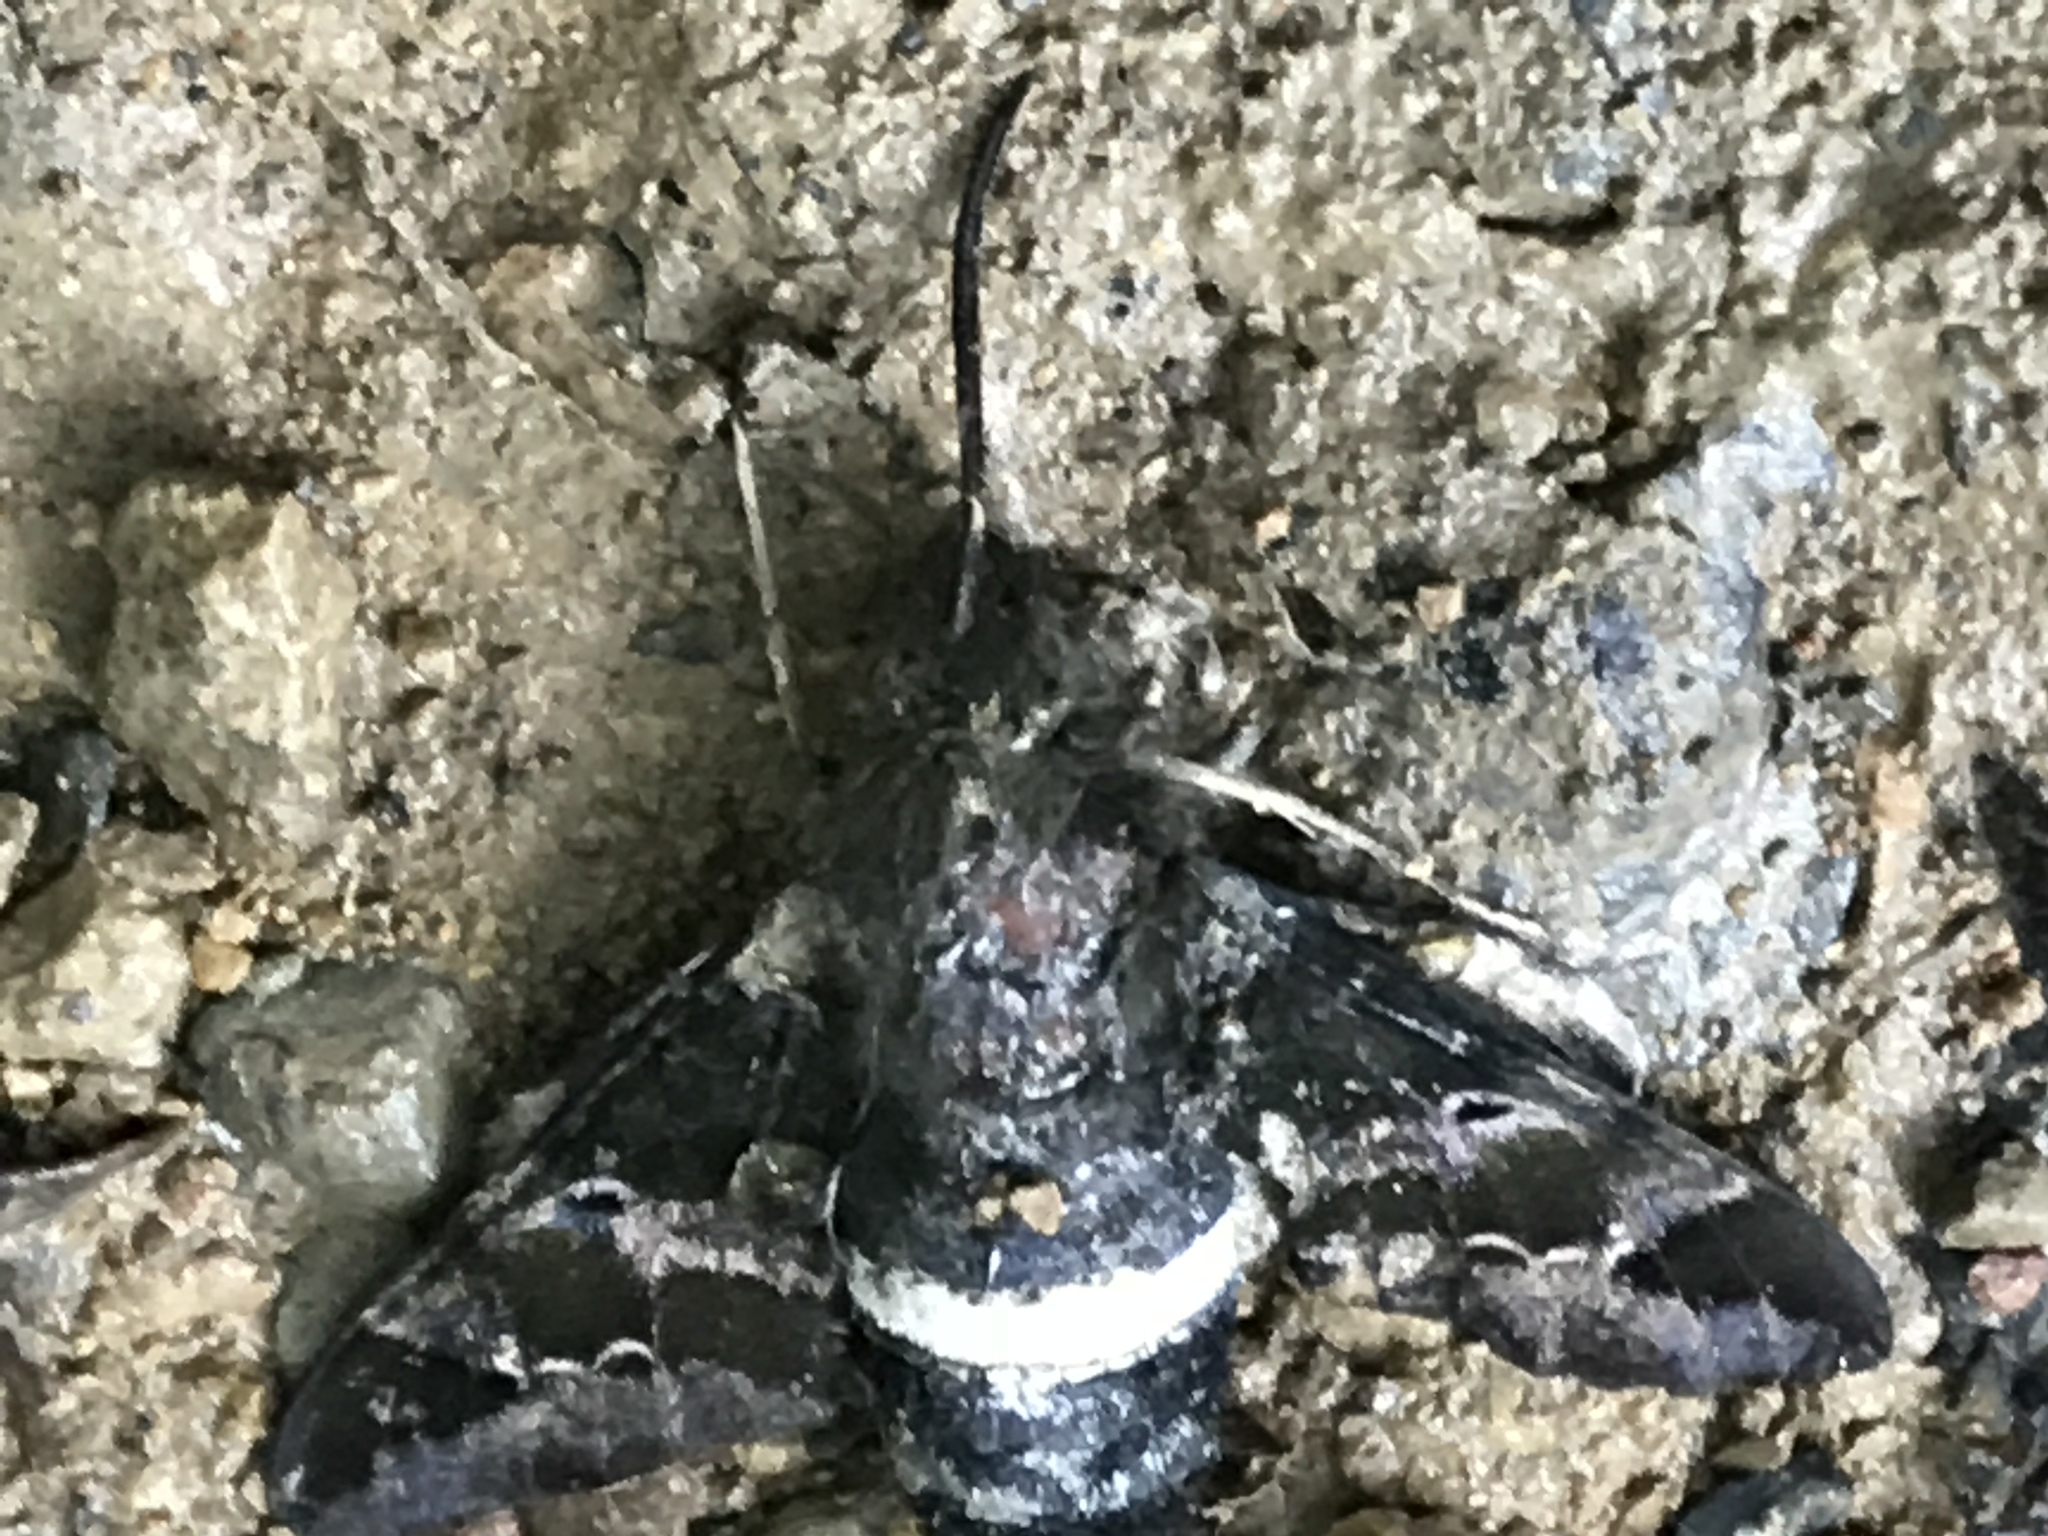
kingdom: Animalia
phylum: Arthropoda
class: Insecta
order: Lepidoptera
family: Sphingidae
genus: Aellopos
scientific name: Aellopos clavipes
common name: Clavipes sphinx
